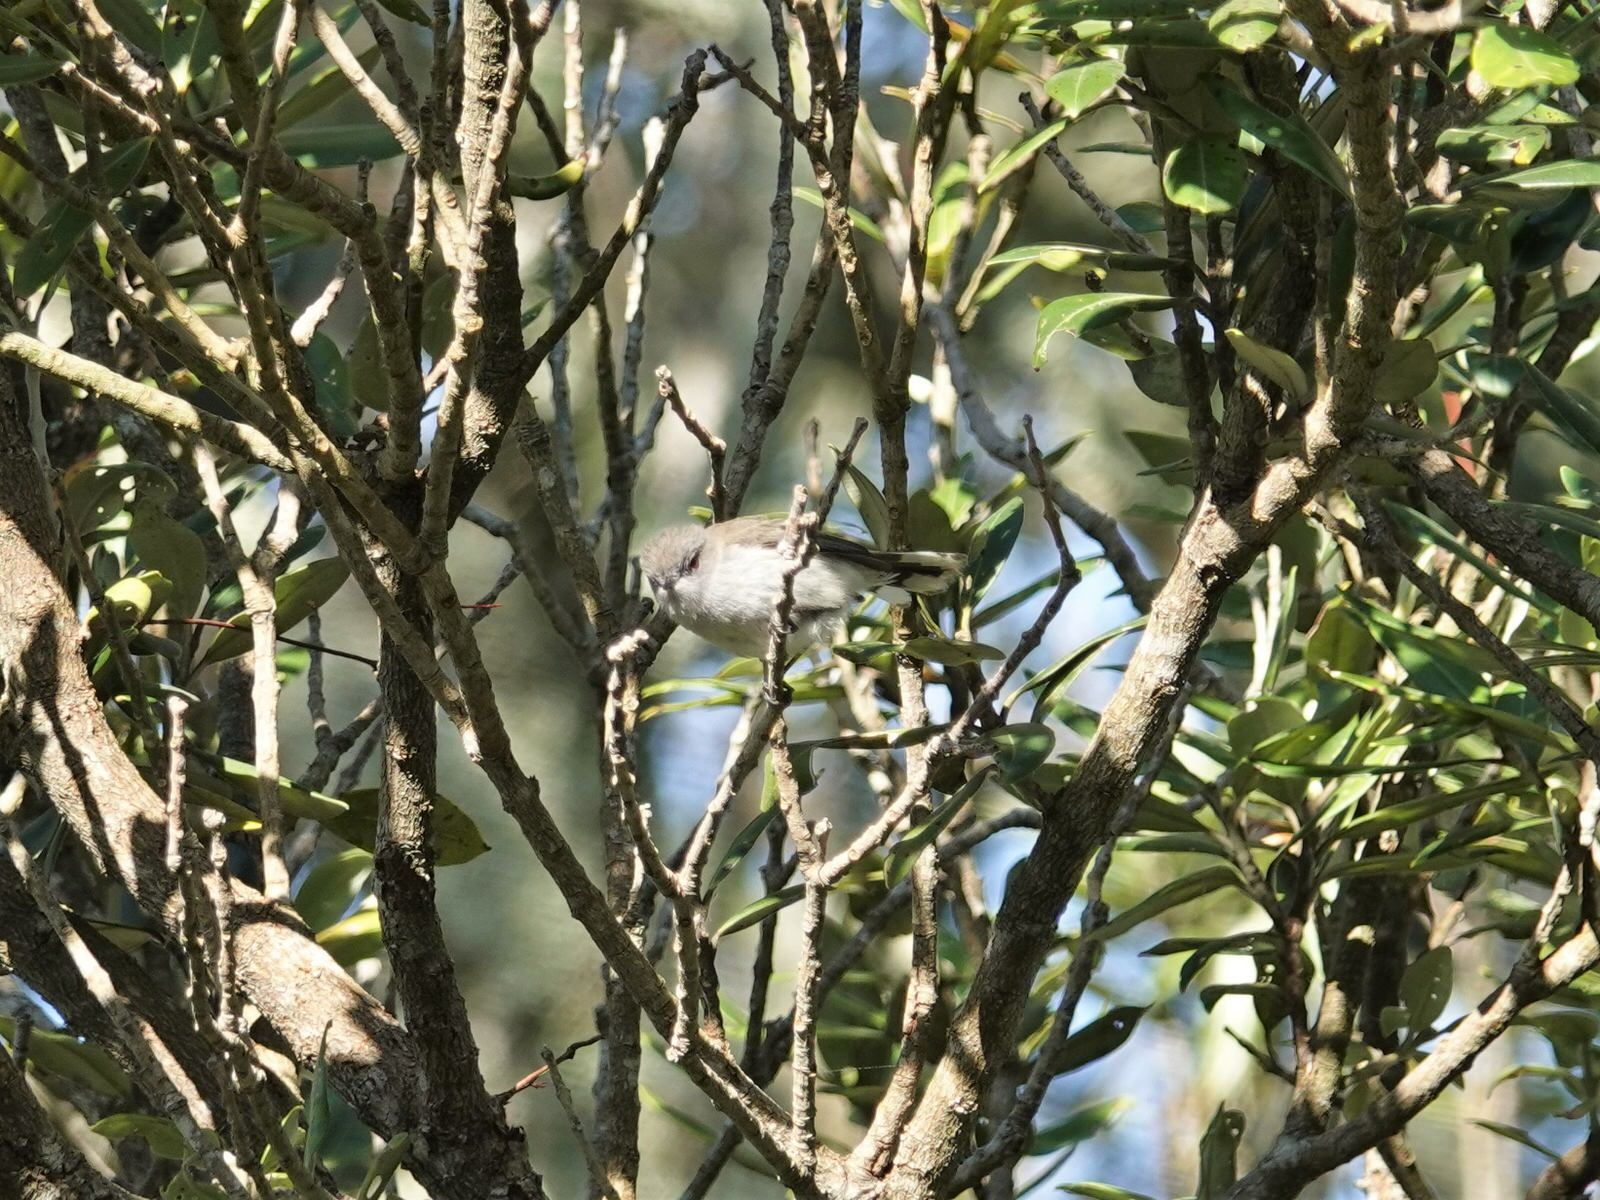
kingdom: Animalia
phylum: Chordata
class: Aves
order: Passeriformes
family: Acanthizidae
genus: Gerygone
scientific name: Gerygone igata
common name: Grey gerygone
